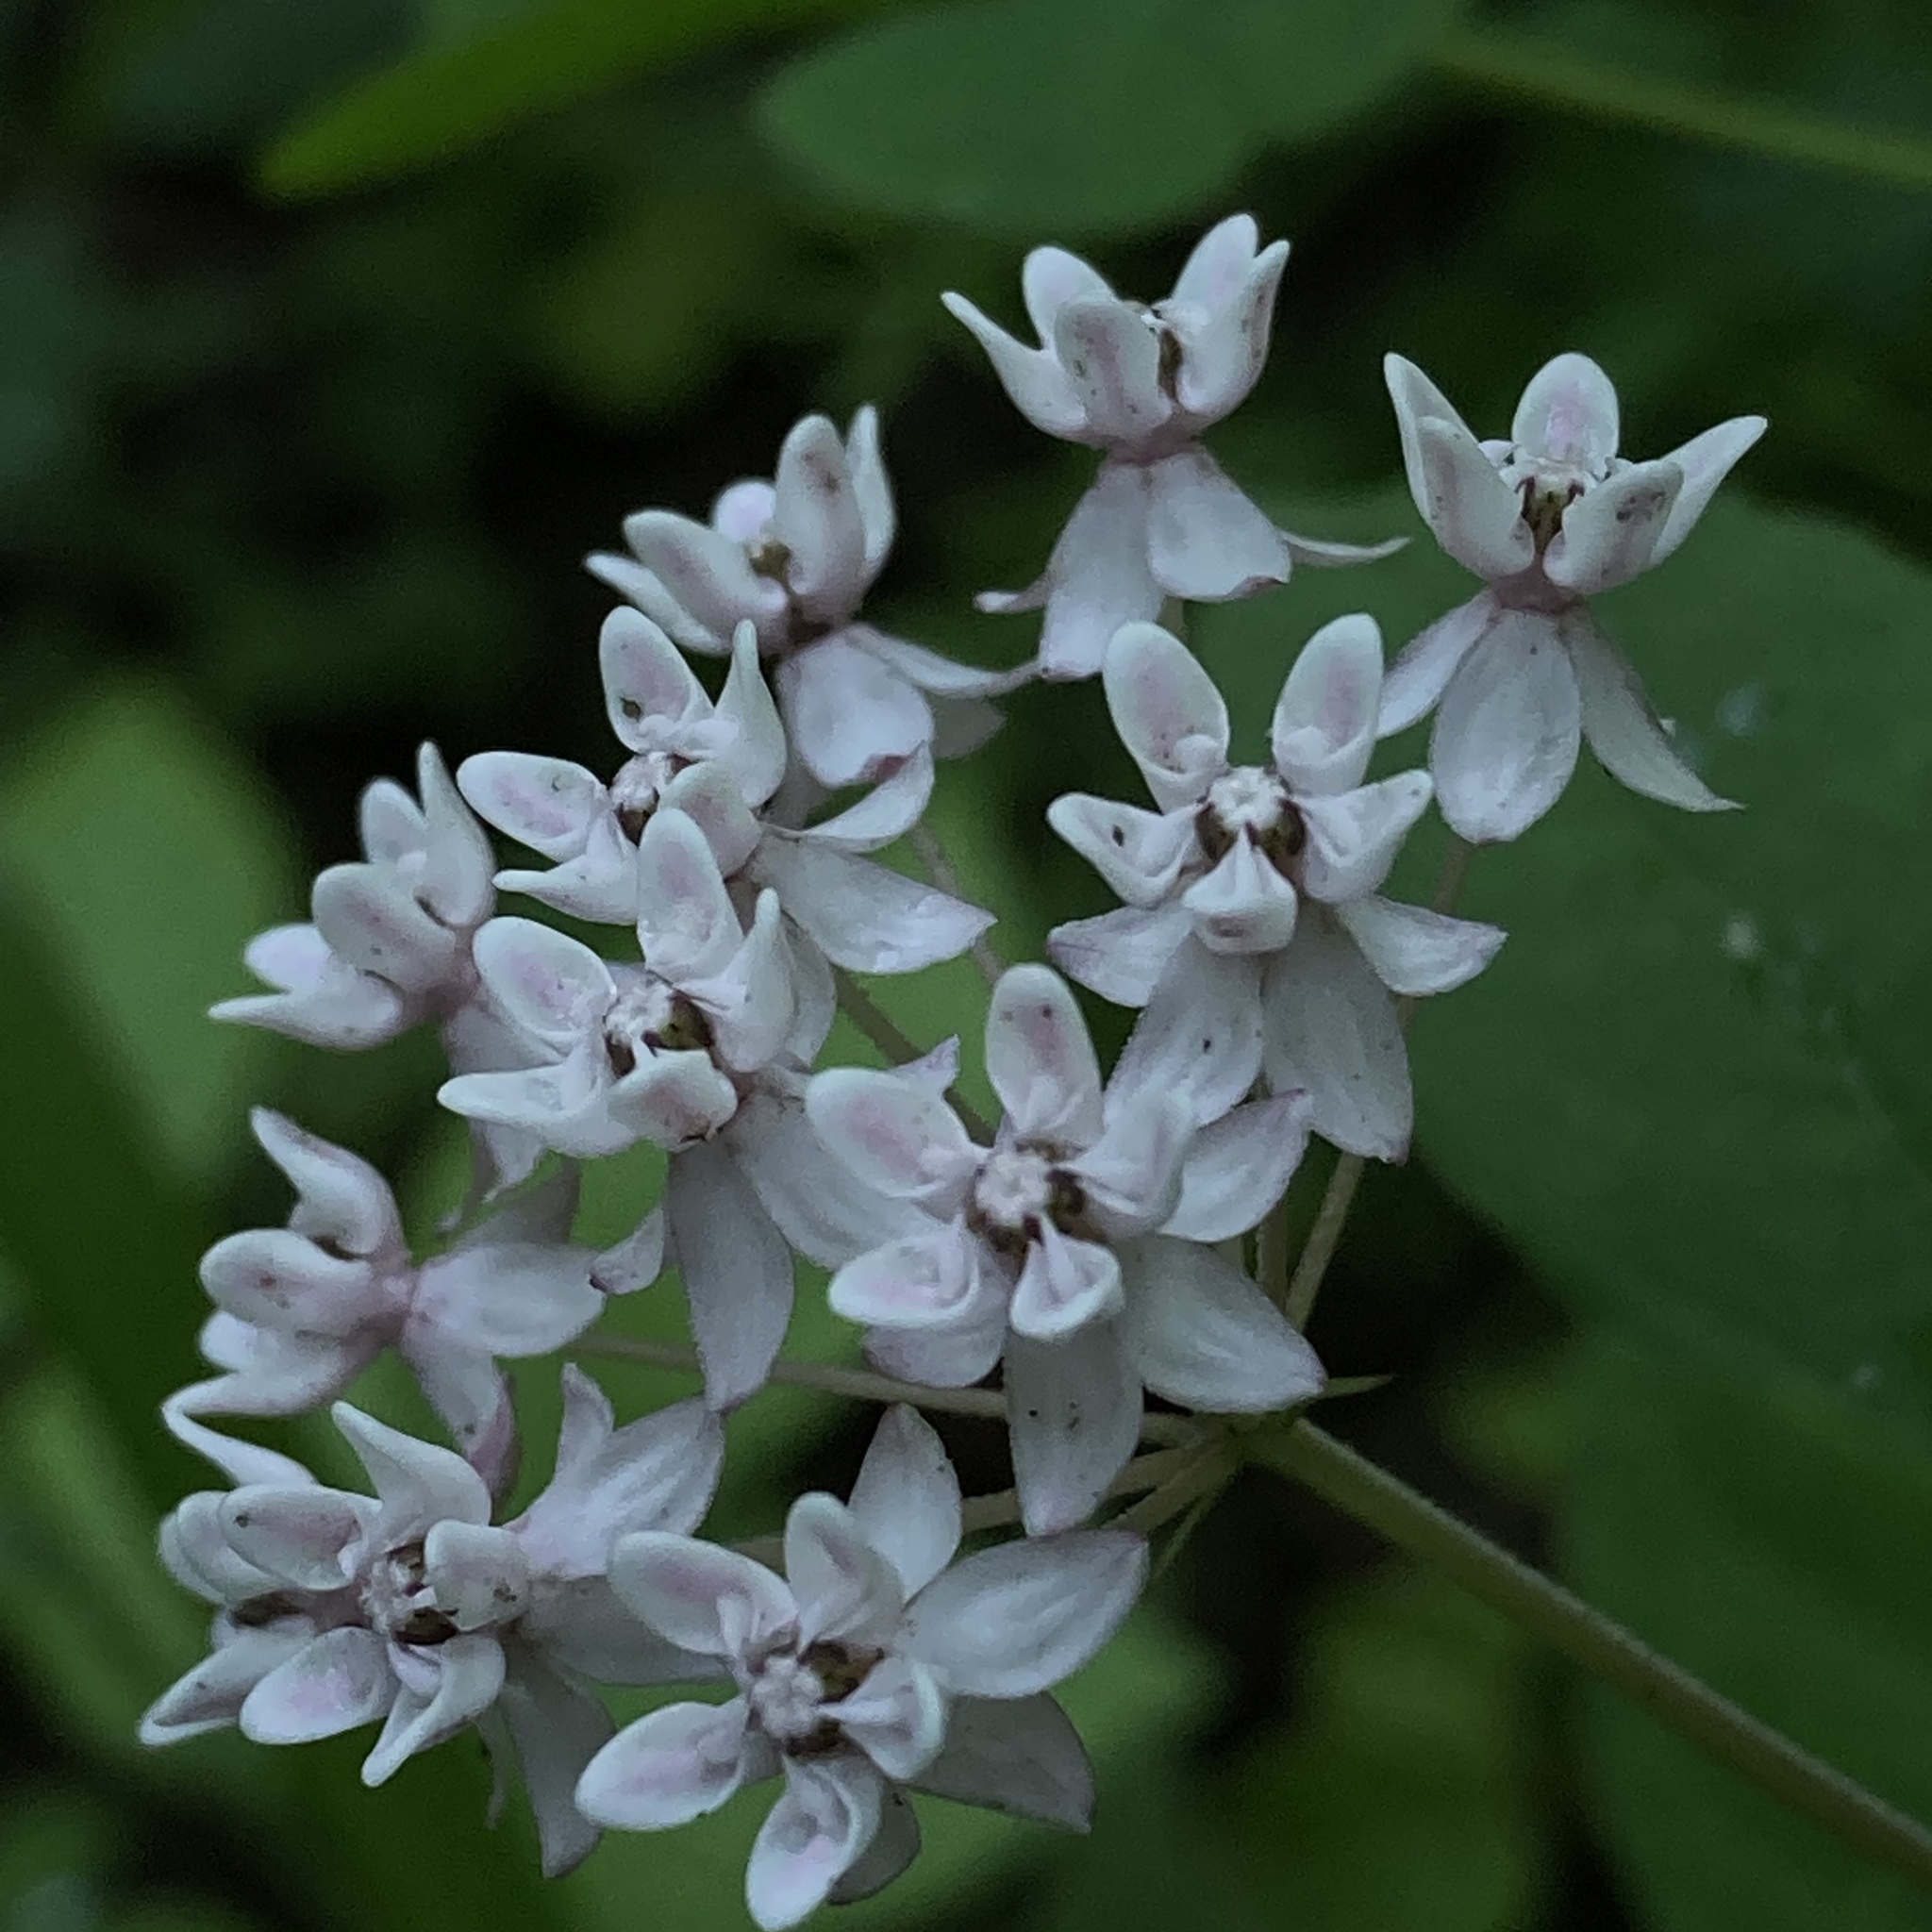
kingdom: Plantae
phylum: Tracheophyta
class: Magnoliopsida
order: Gentianales
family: Apocynaceae
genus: Asclepias
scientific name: Asclepias quadrifolia
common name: Whorled milkweed
